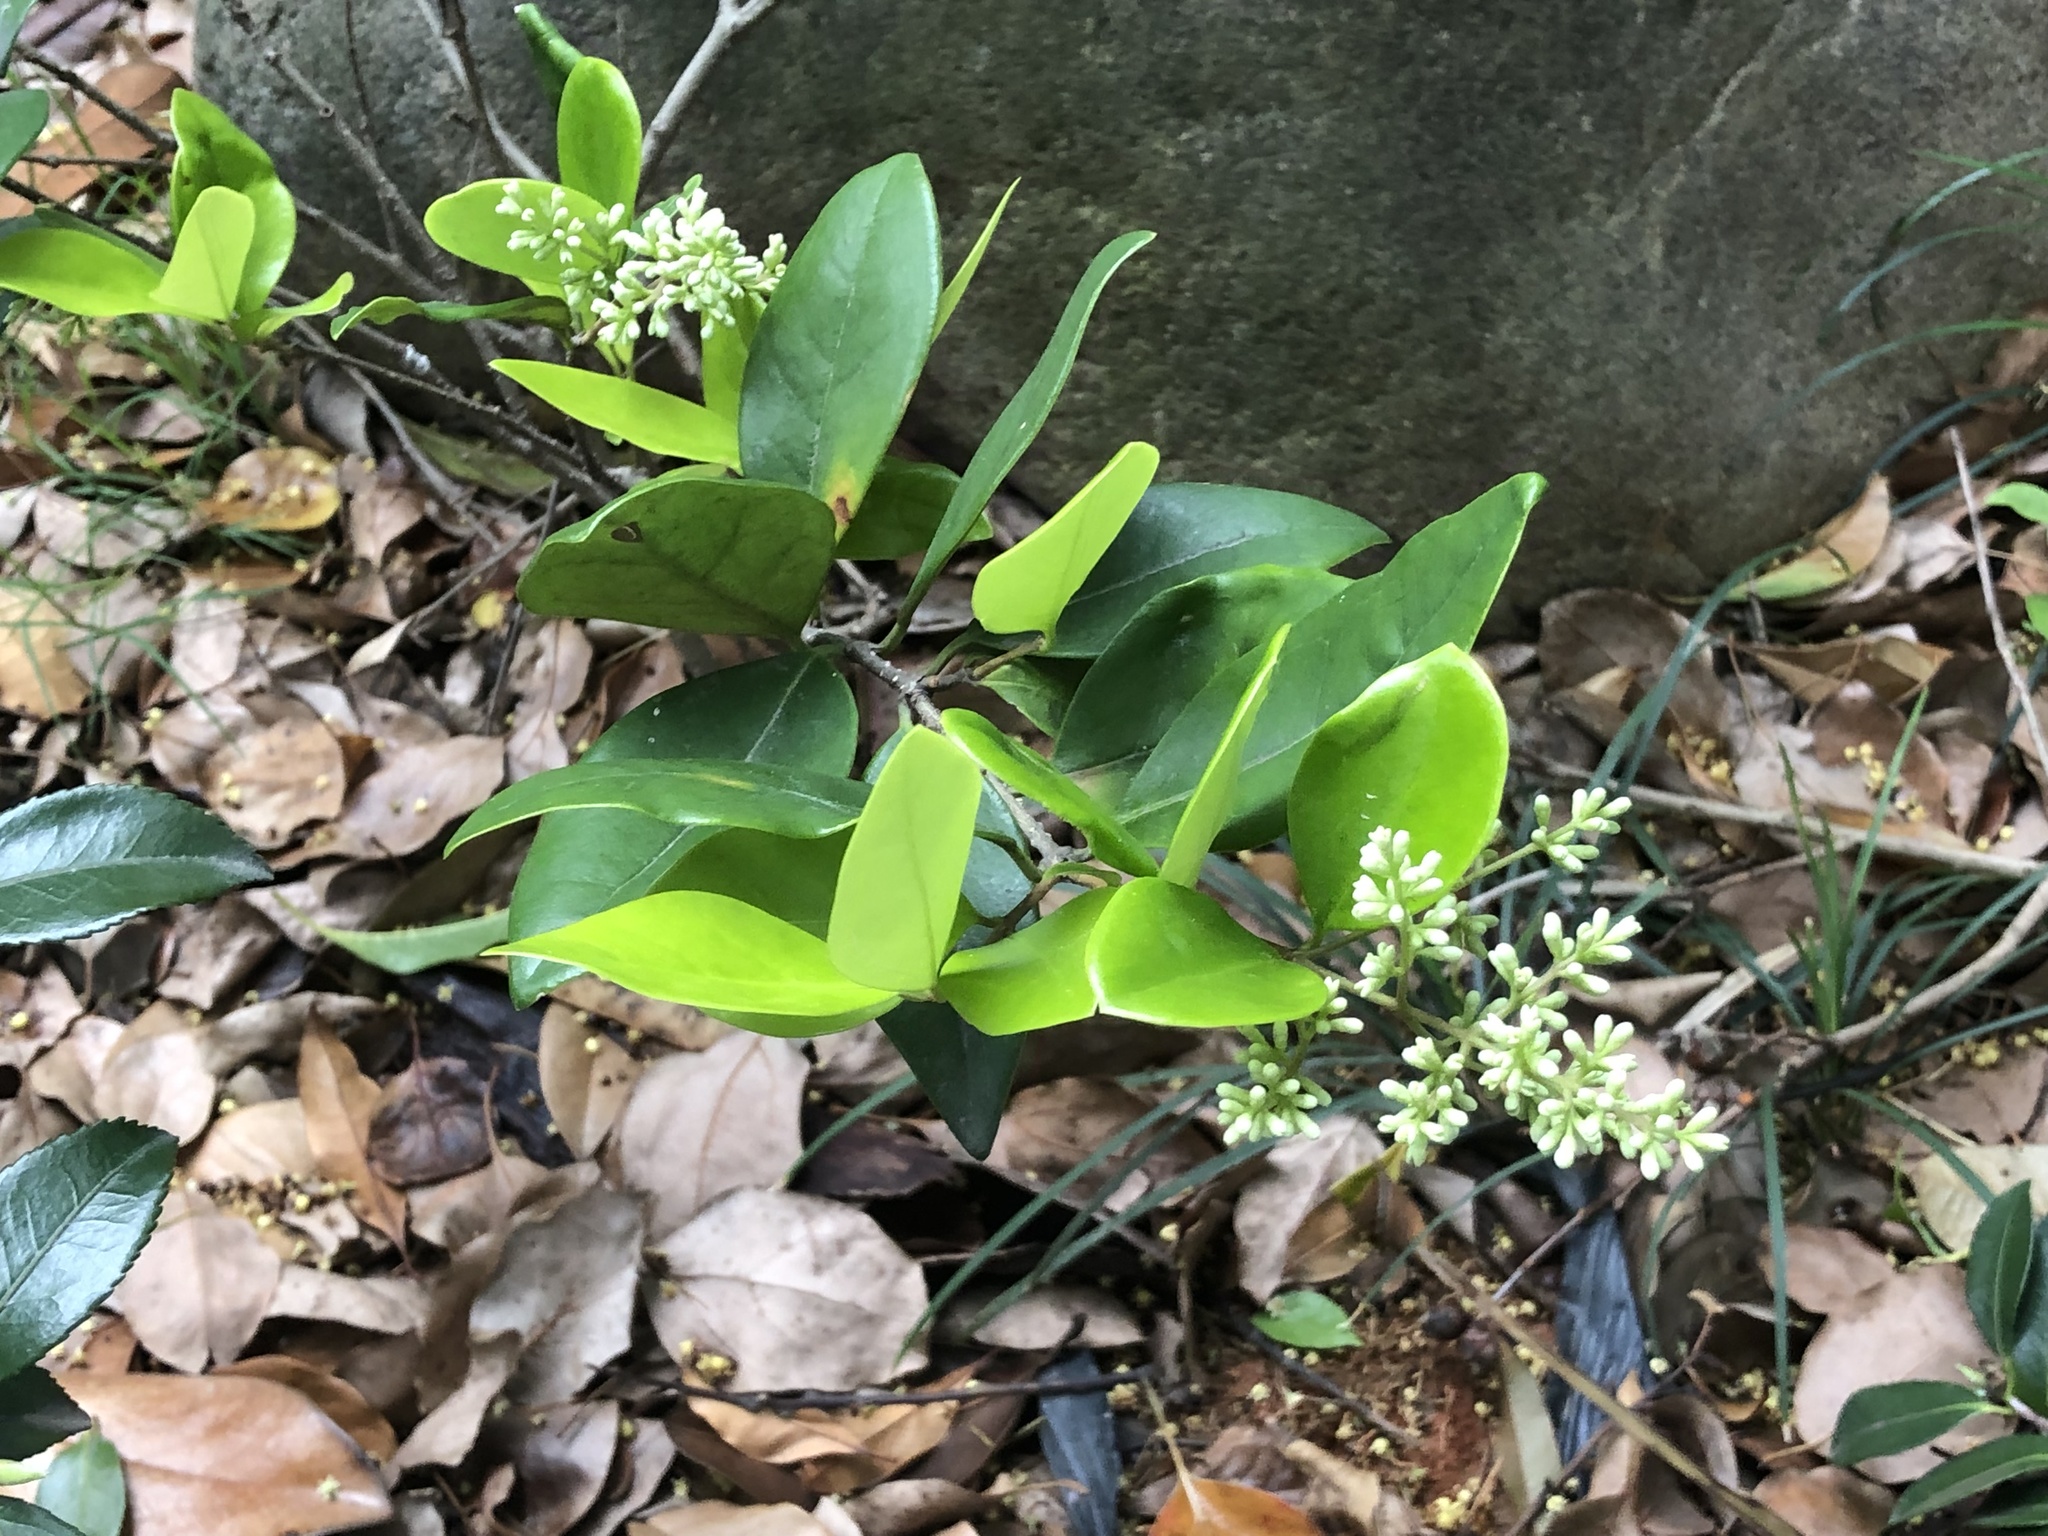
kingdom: Plantae
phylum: Tracheophyta
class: Magnoliopsida
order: Lamiales
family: Oleaceae
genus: Ligustrum
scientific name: Ligustrum japonicum
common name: Japanese privet
